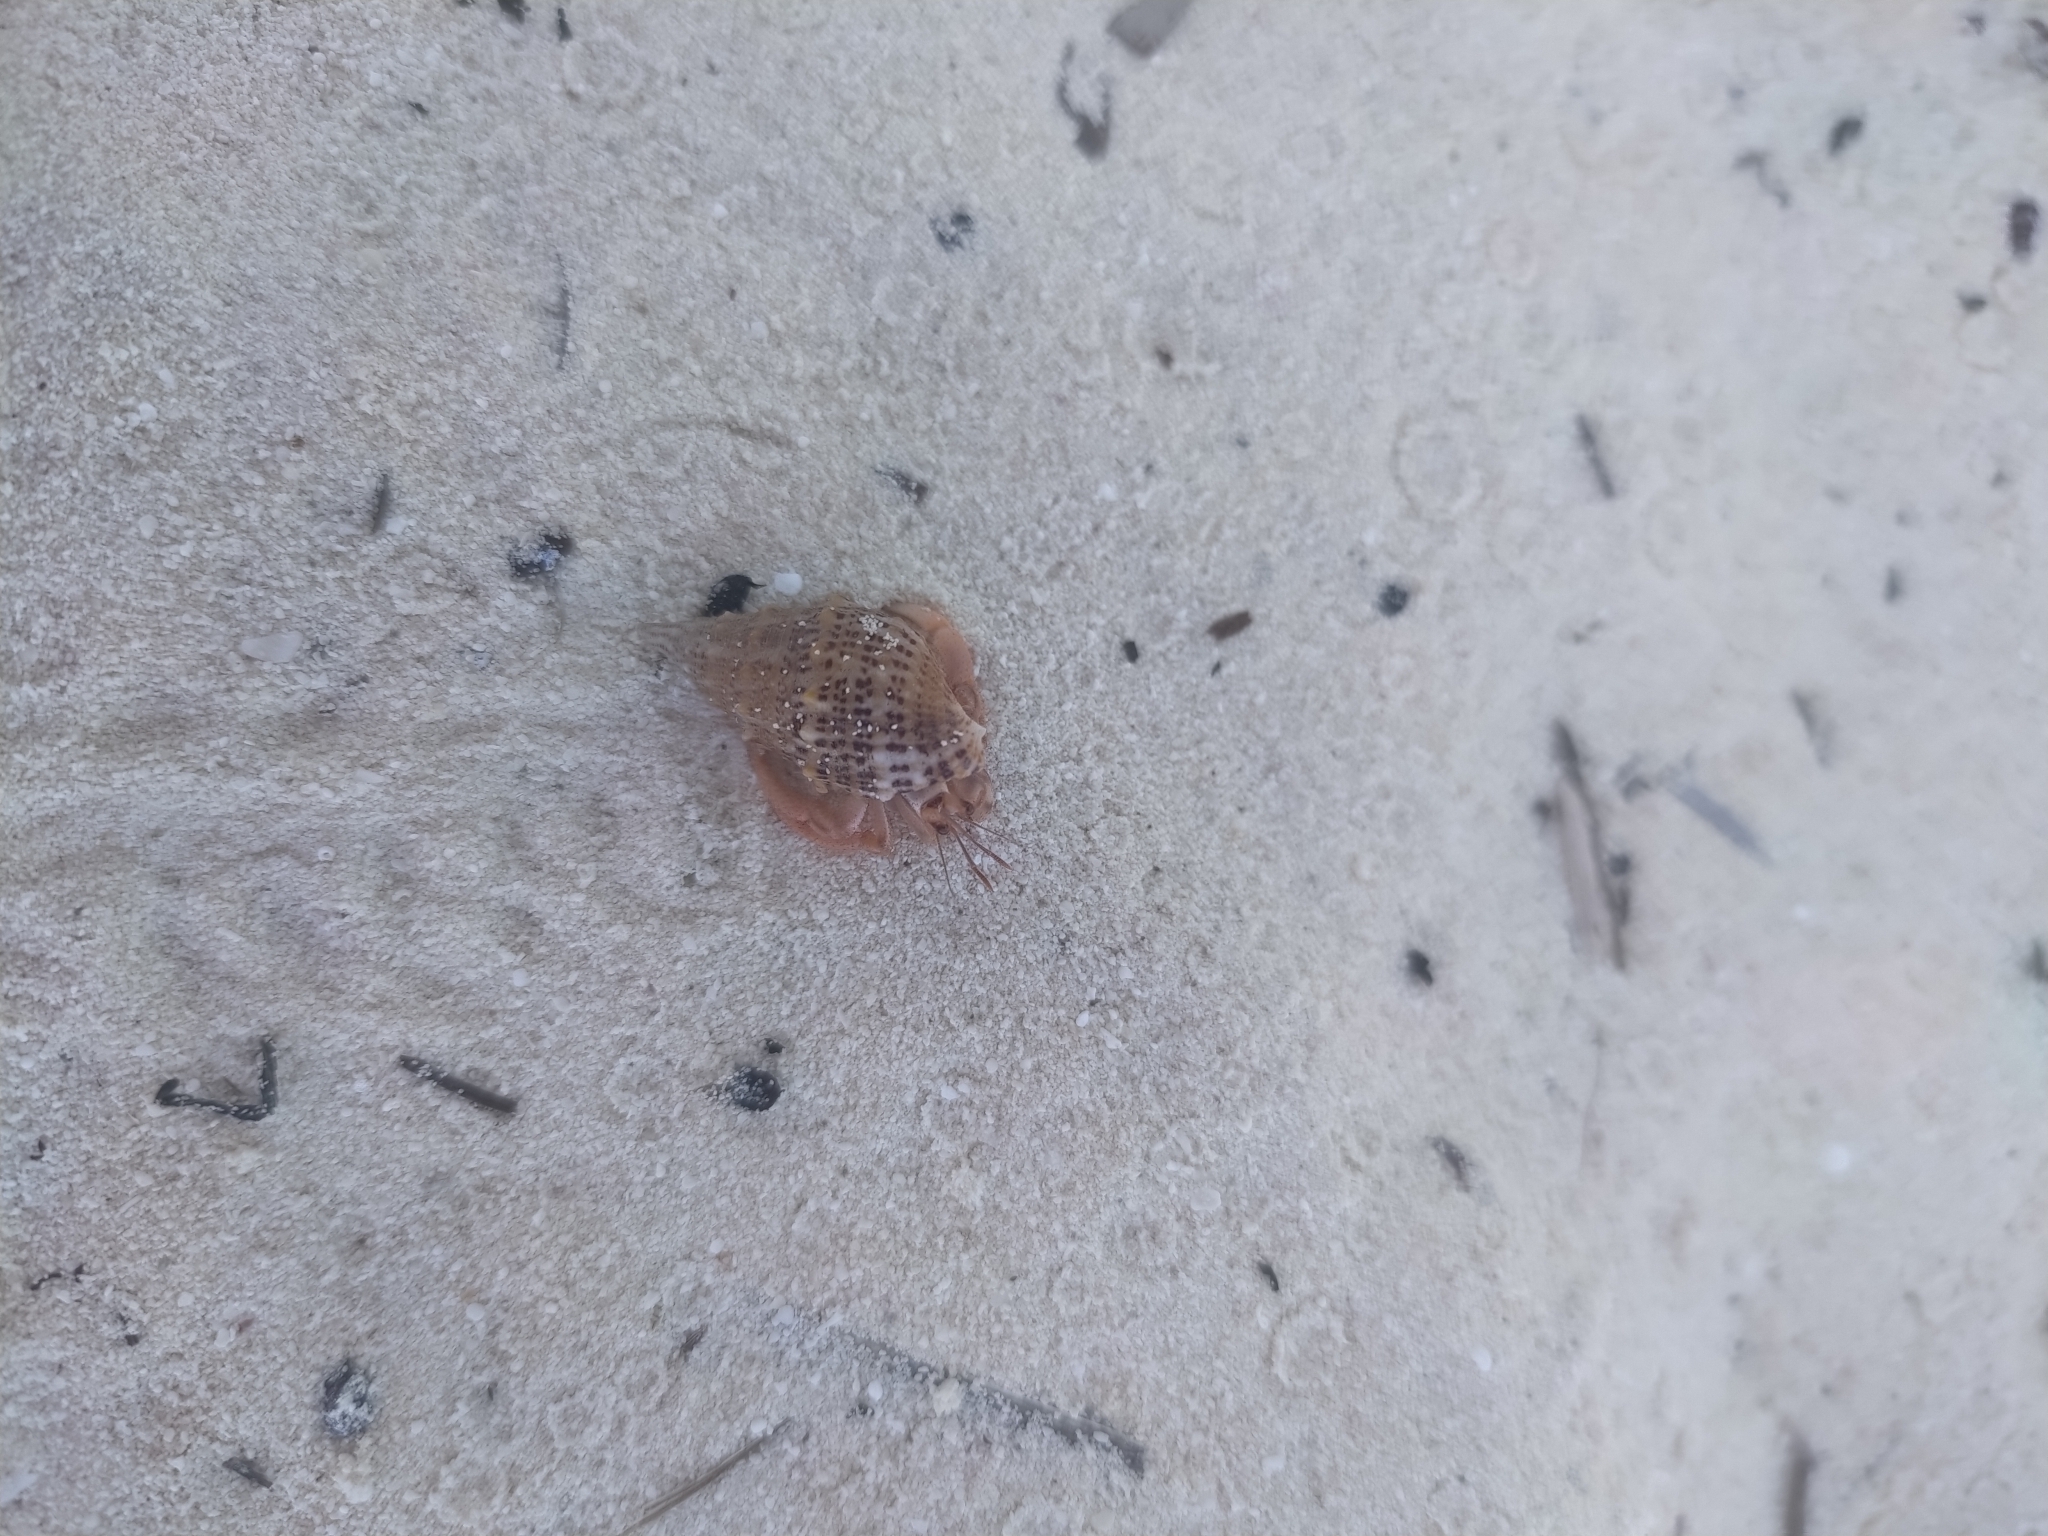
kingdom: Animalia
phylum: Arthropoda
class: Malacostraca
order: Decapoda
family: Coenobitidae
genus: Coenobita
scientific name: Coenobita clypeatus
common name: Caribbean hermit crab
